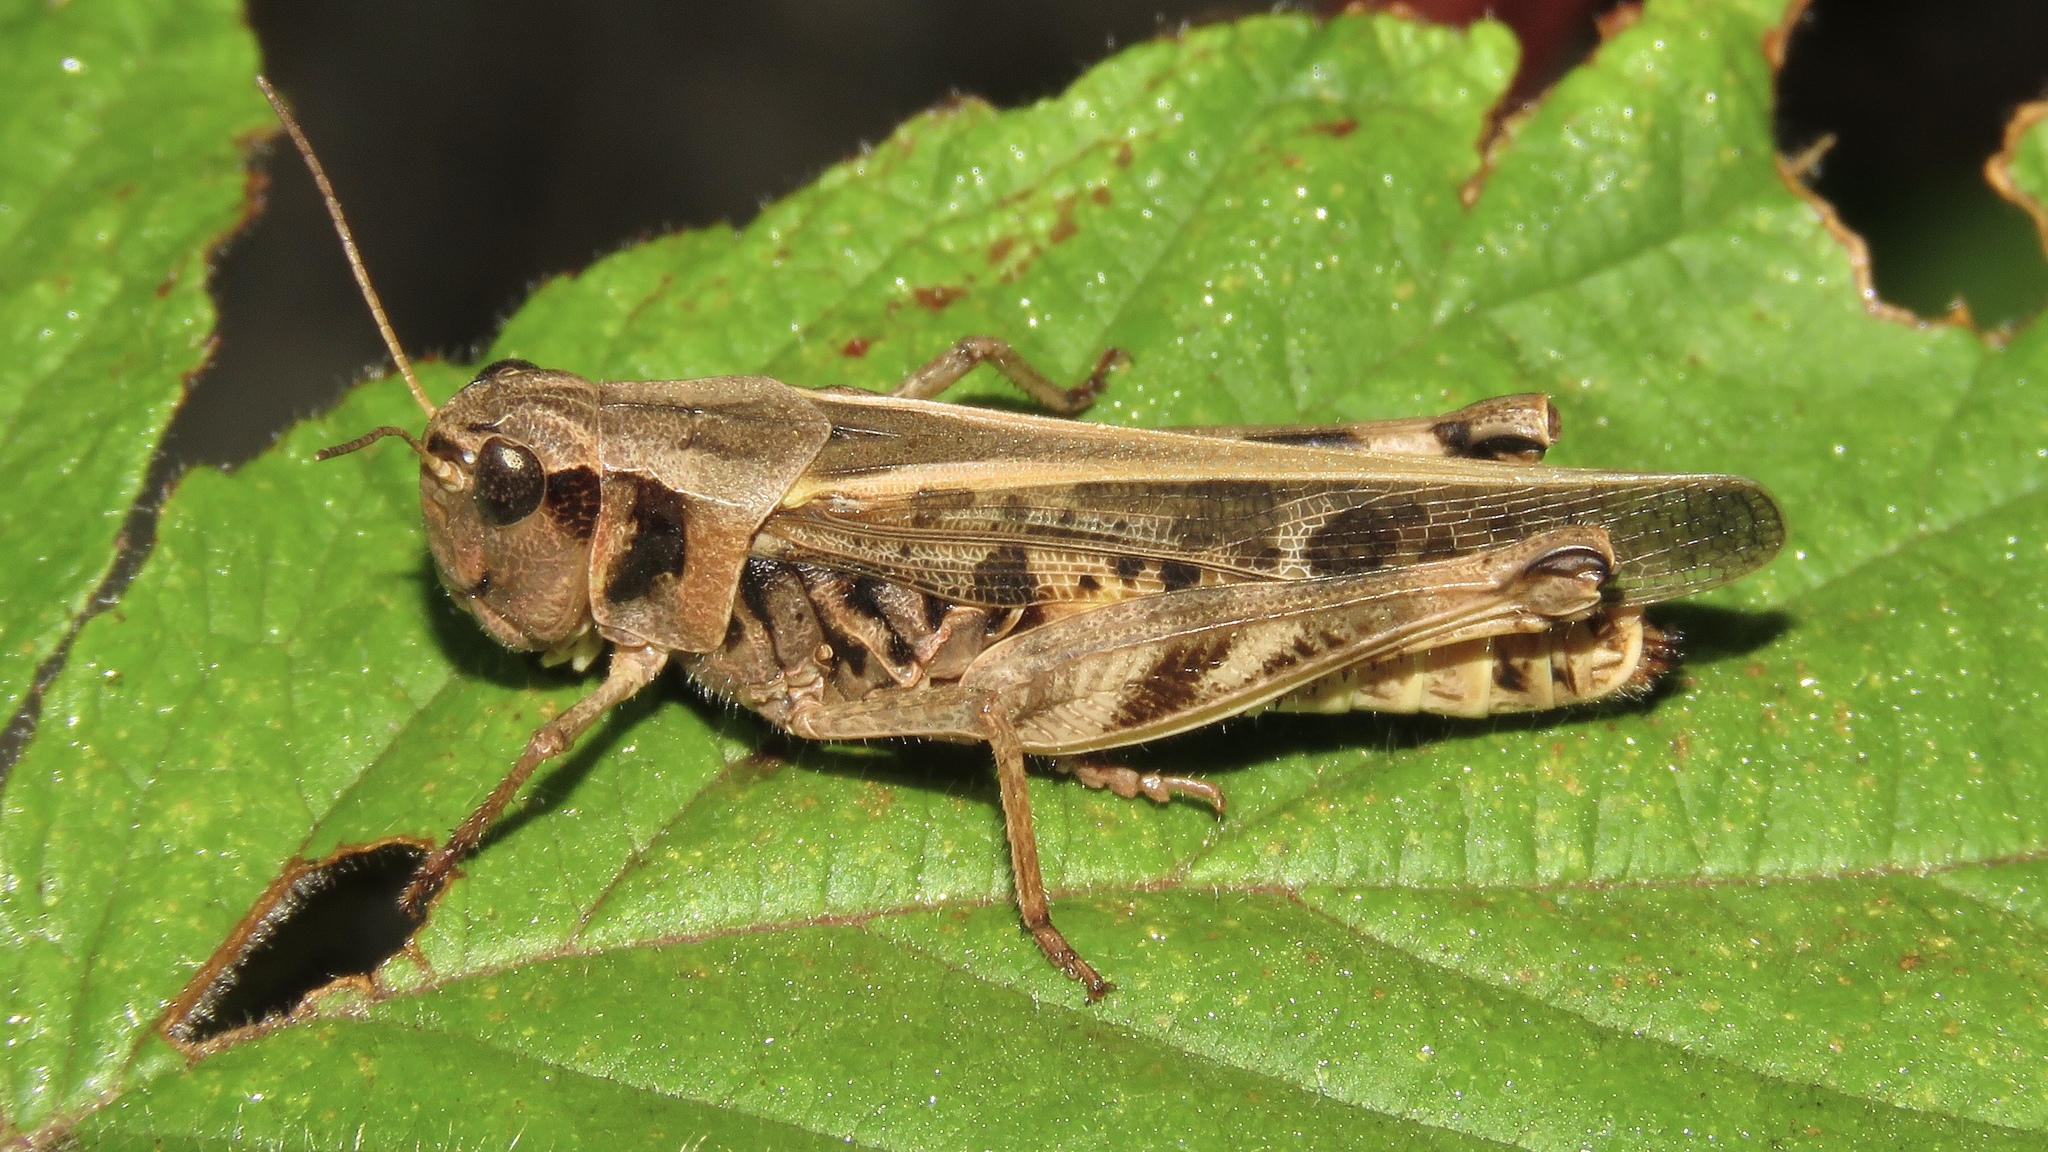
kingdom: Animalia
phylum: Arthropoda
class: Insecta
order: Orthoptera
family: Acrididae
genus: Camnula
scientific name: Camnula pellucida
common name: Clear-winged grasshopper
